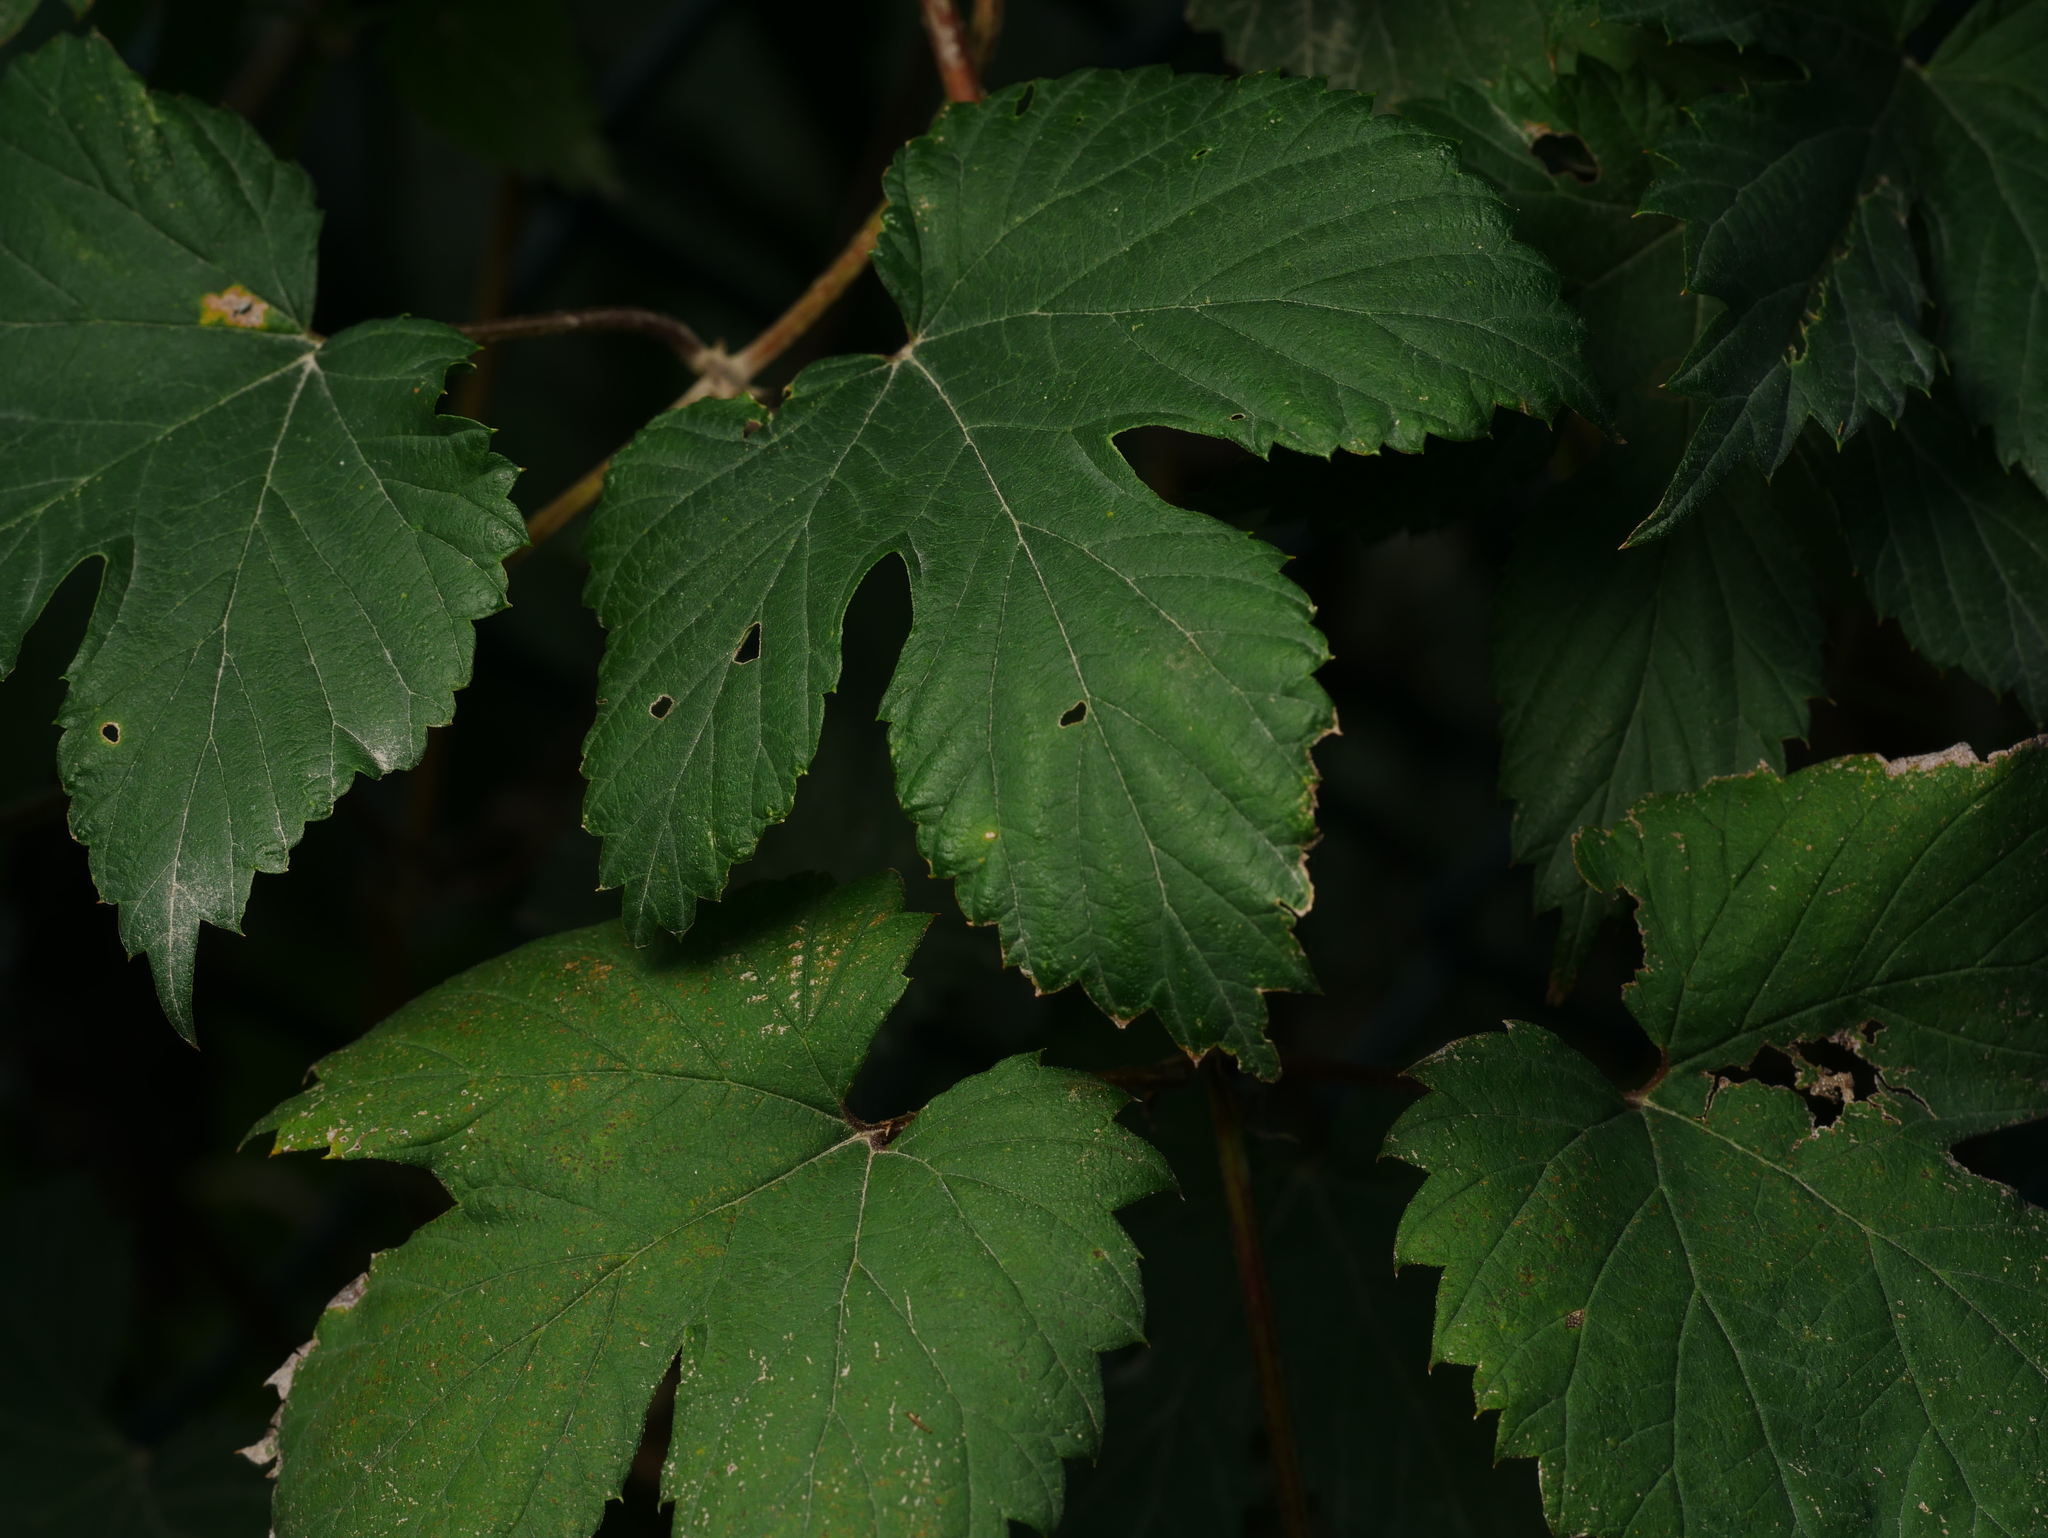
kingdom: Plantae
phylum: Tracheophyta
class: Magnoliopsida
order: Rosales
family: Cannabaceae
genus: Humulus
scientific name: Humulus lupulus
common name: Hop
